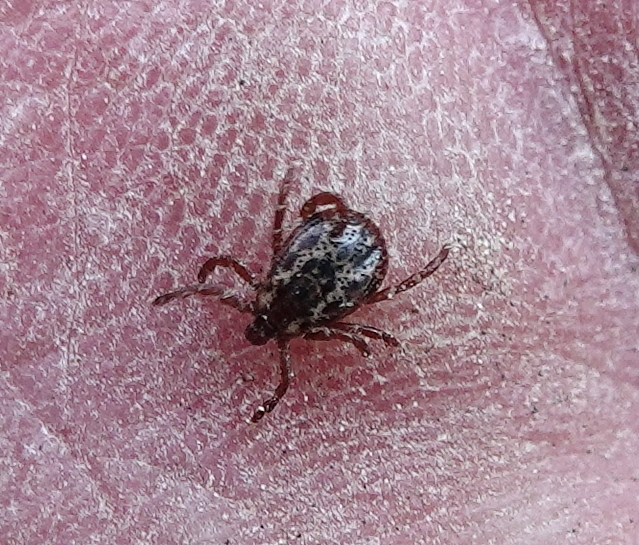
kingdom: Animalia
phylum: Arthropoda
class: Arachnida
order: Ixodida
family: Ixodidae
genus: Dermacentor
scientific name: Dermacentor variabilis
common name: American dog tick
